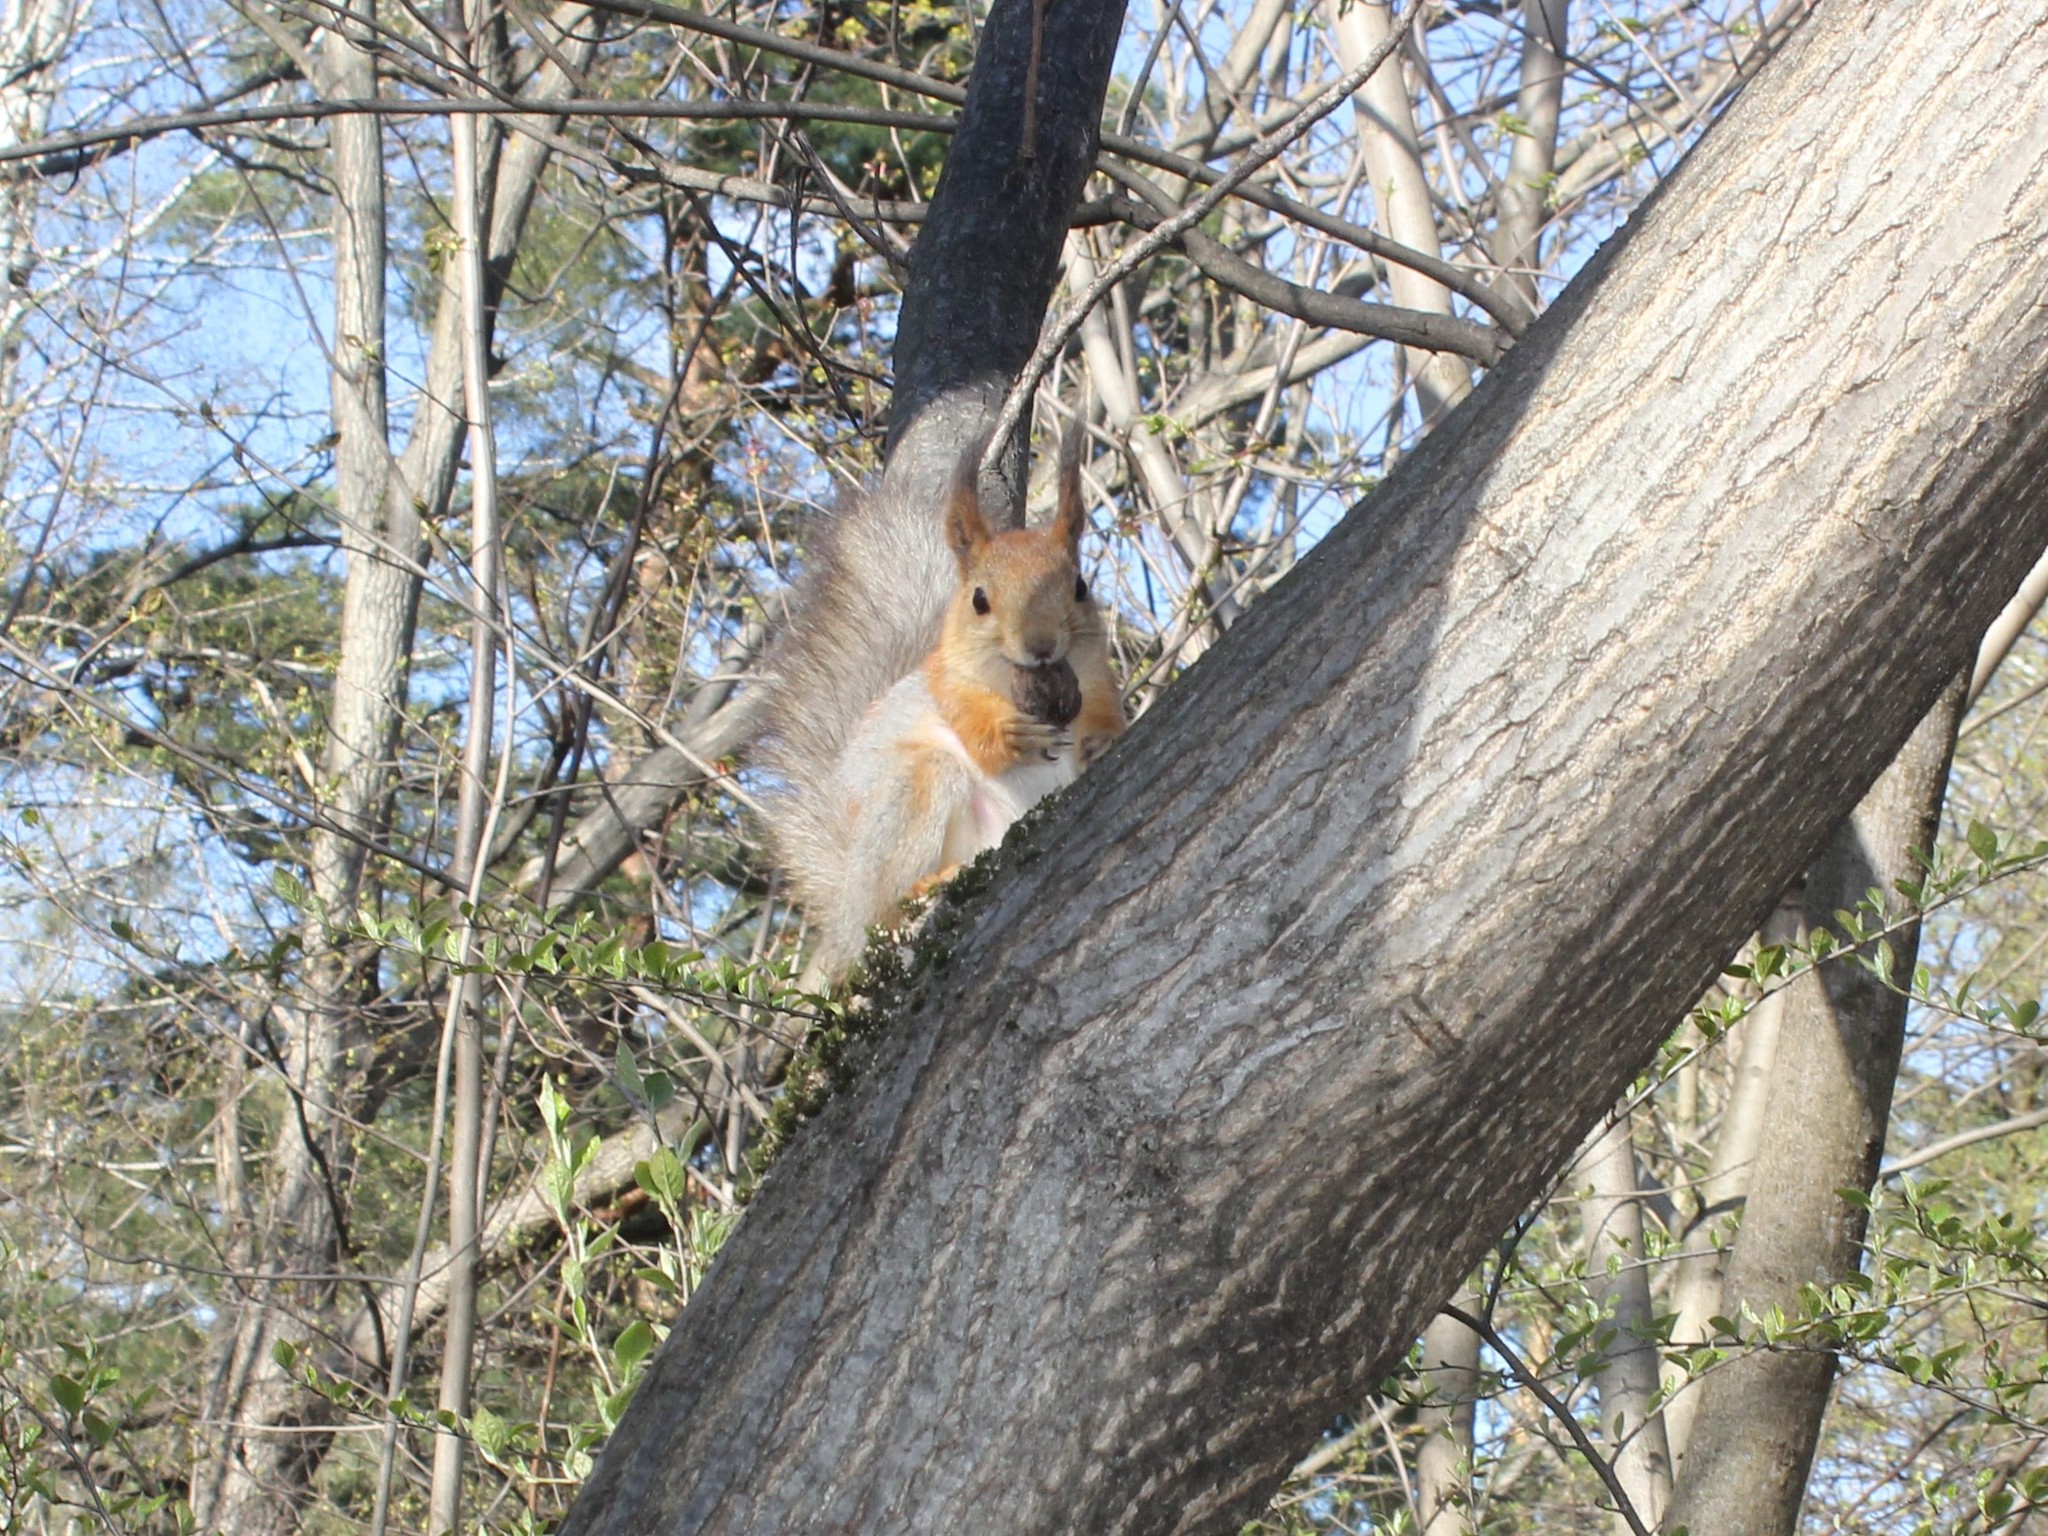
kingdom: Animalia
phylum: Chordata
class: Mammalia
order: Rodentia
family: Sciuridae
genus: Sciurus
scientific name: Sciurus vulgaris
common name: Eurasian red squirrel
